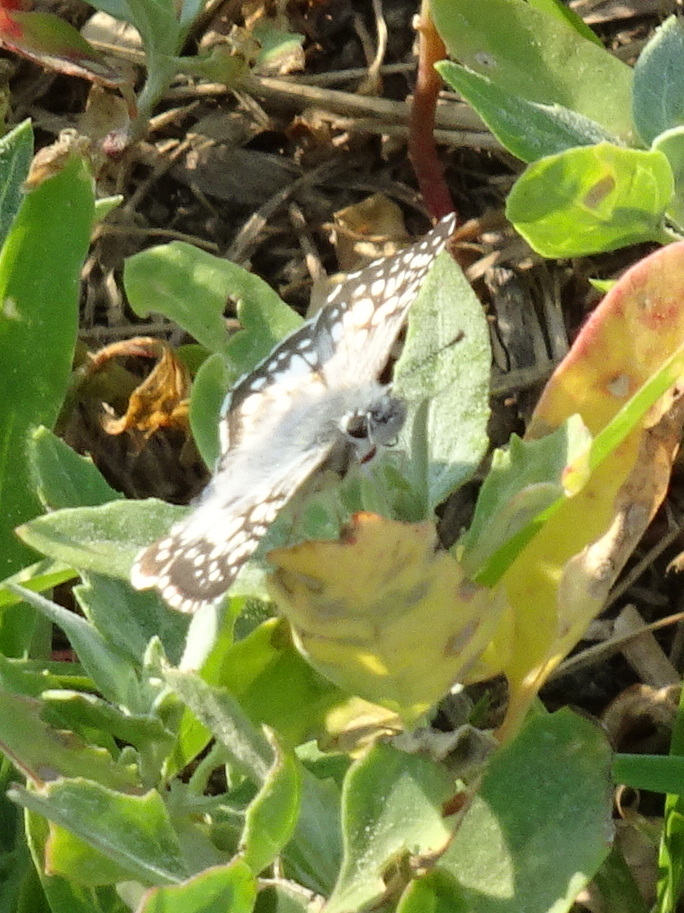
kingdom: Animalia
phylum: Arthropoda
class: Insecta
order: Lepidoptera
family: Hesperiidae
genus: Burnsius
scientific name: Burnsius communis
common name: Common checkered-skipper
